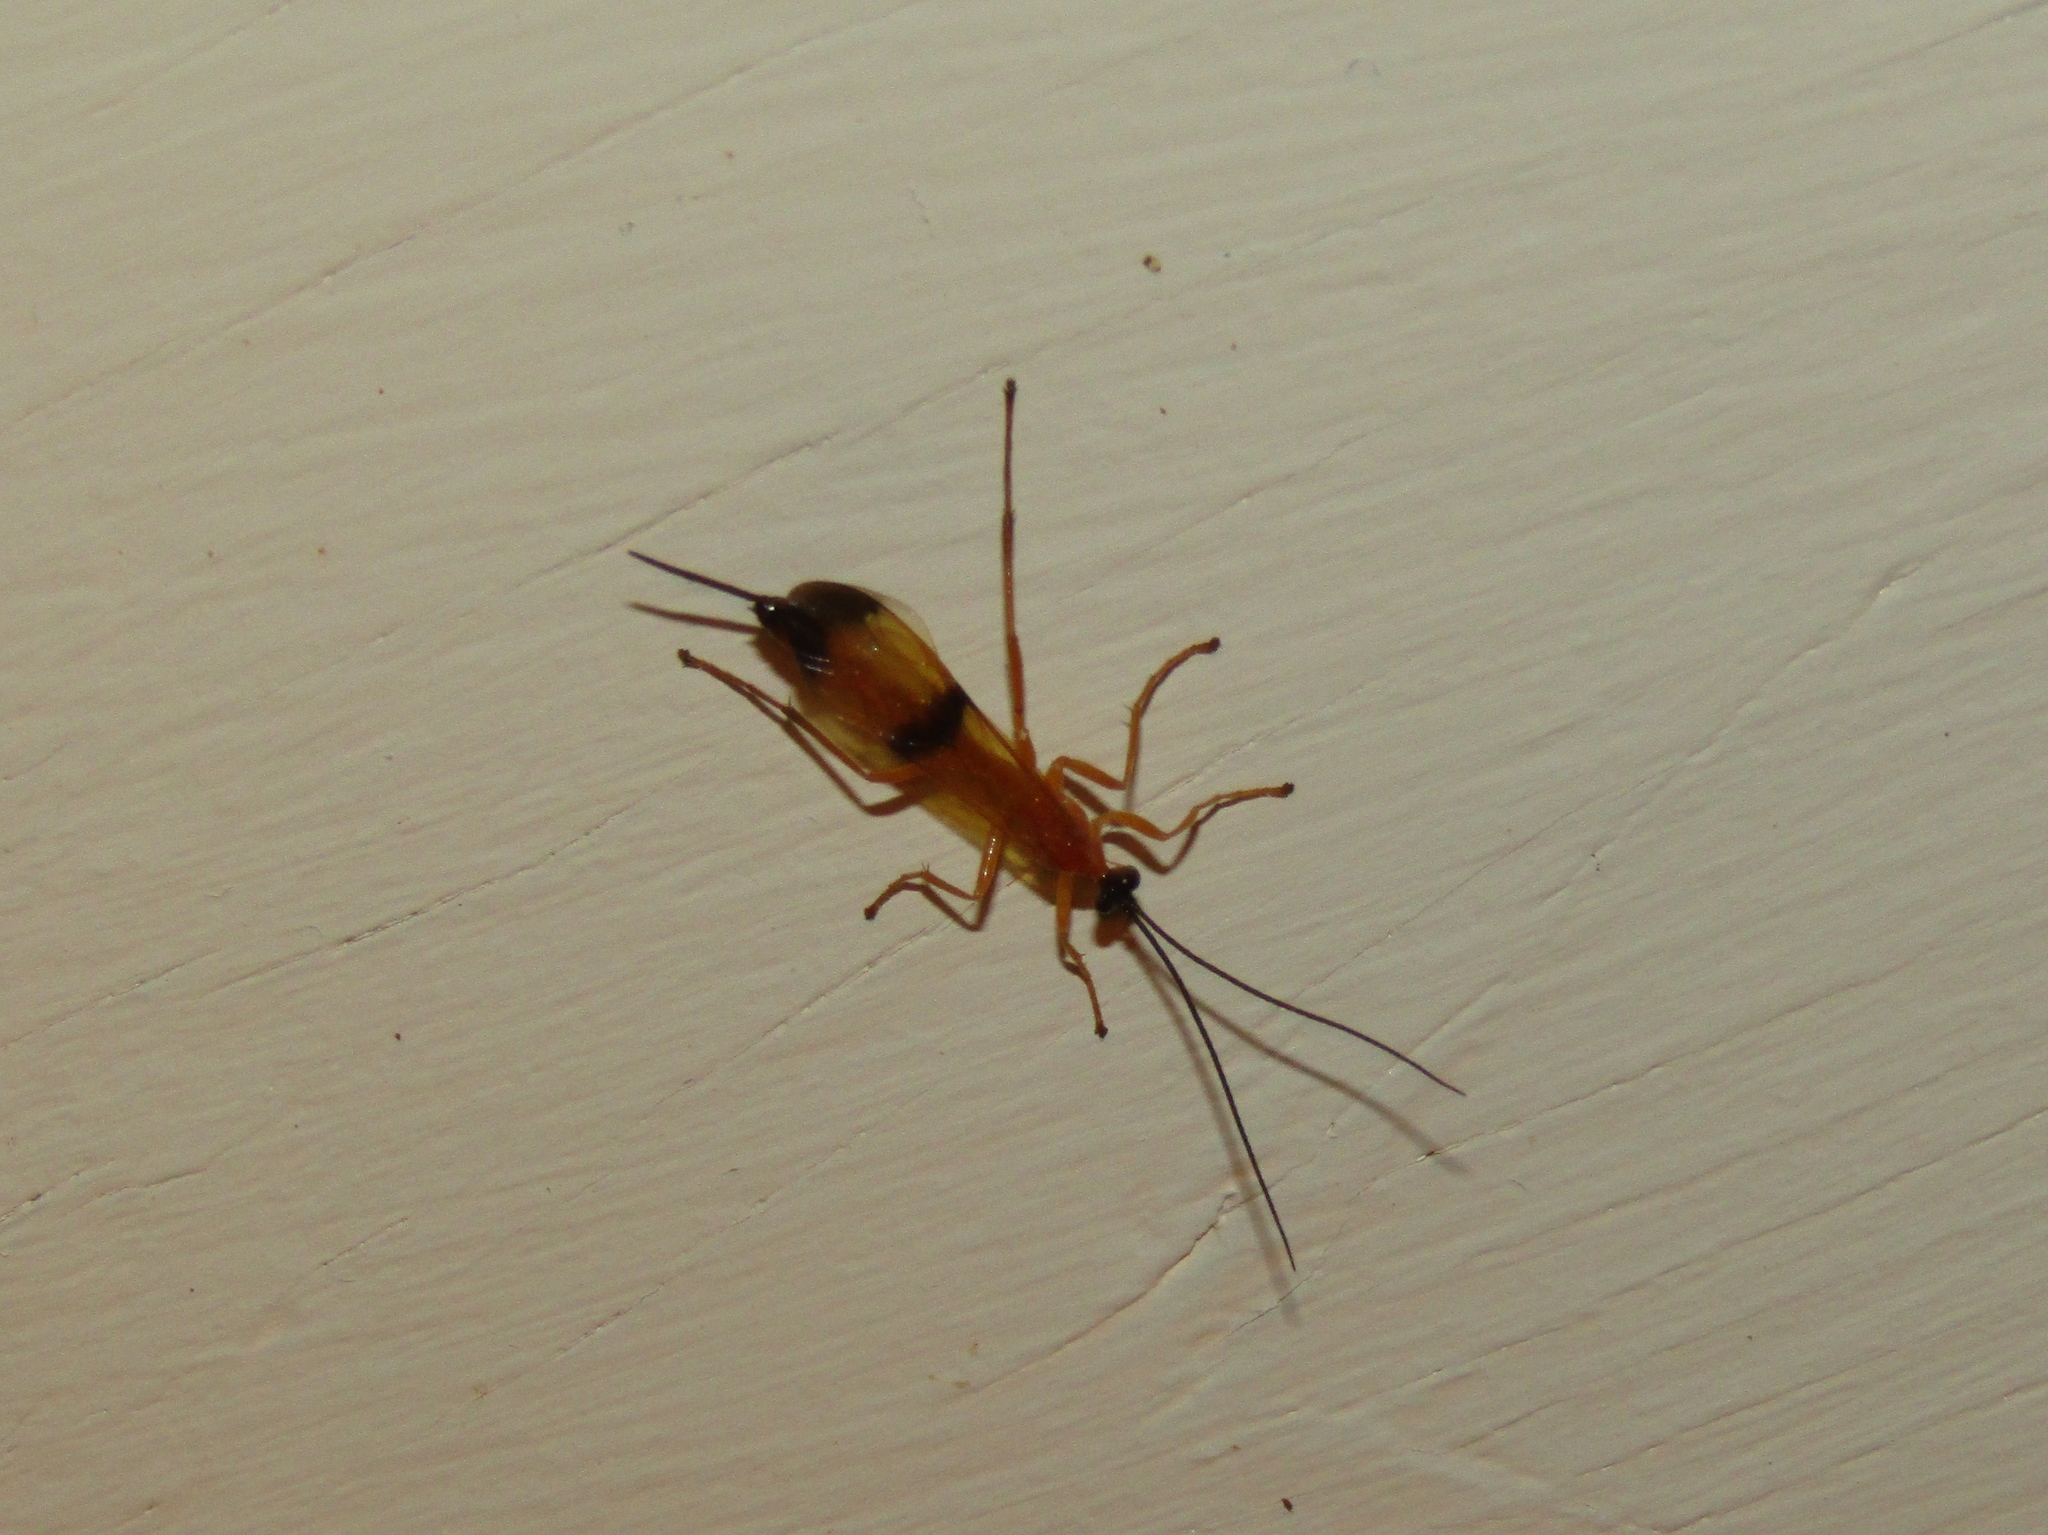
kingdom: Animalia
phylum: Arthropoda
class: Insecta
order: Hymenoptera
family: Ichneumonidae
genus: Acrotaphus
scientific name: Acrotaphus wiltii
